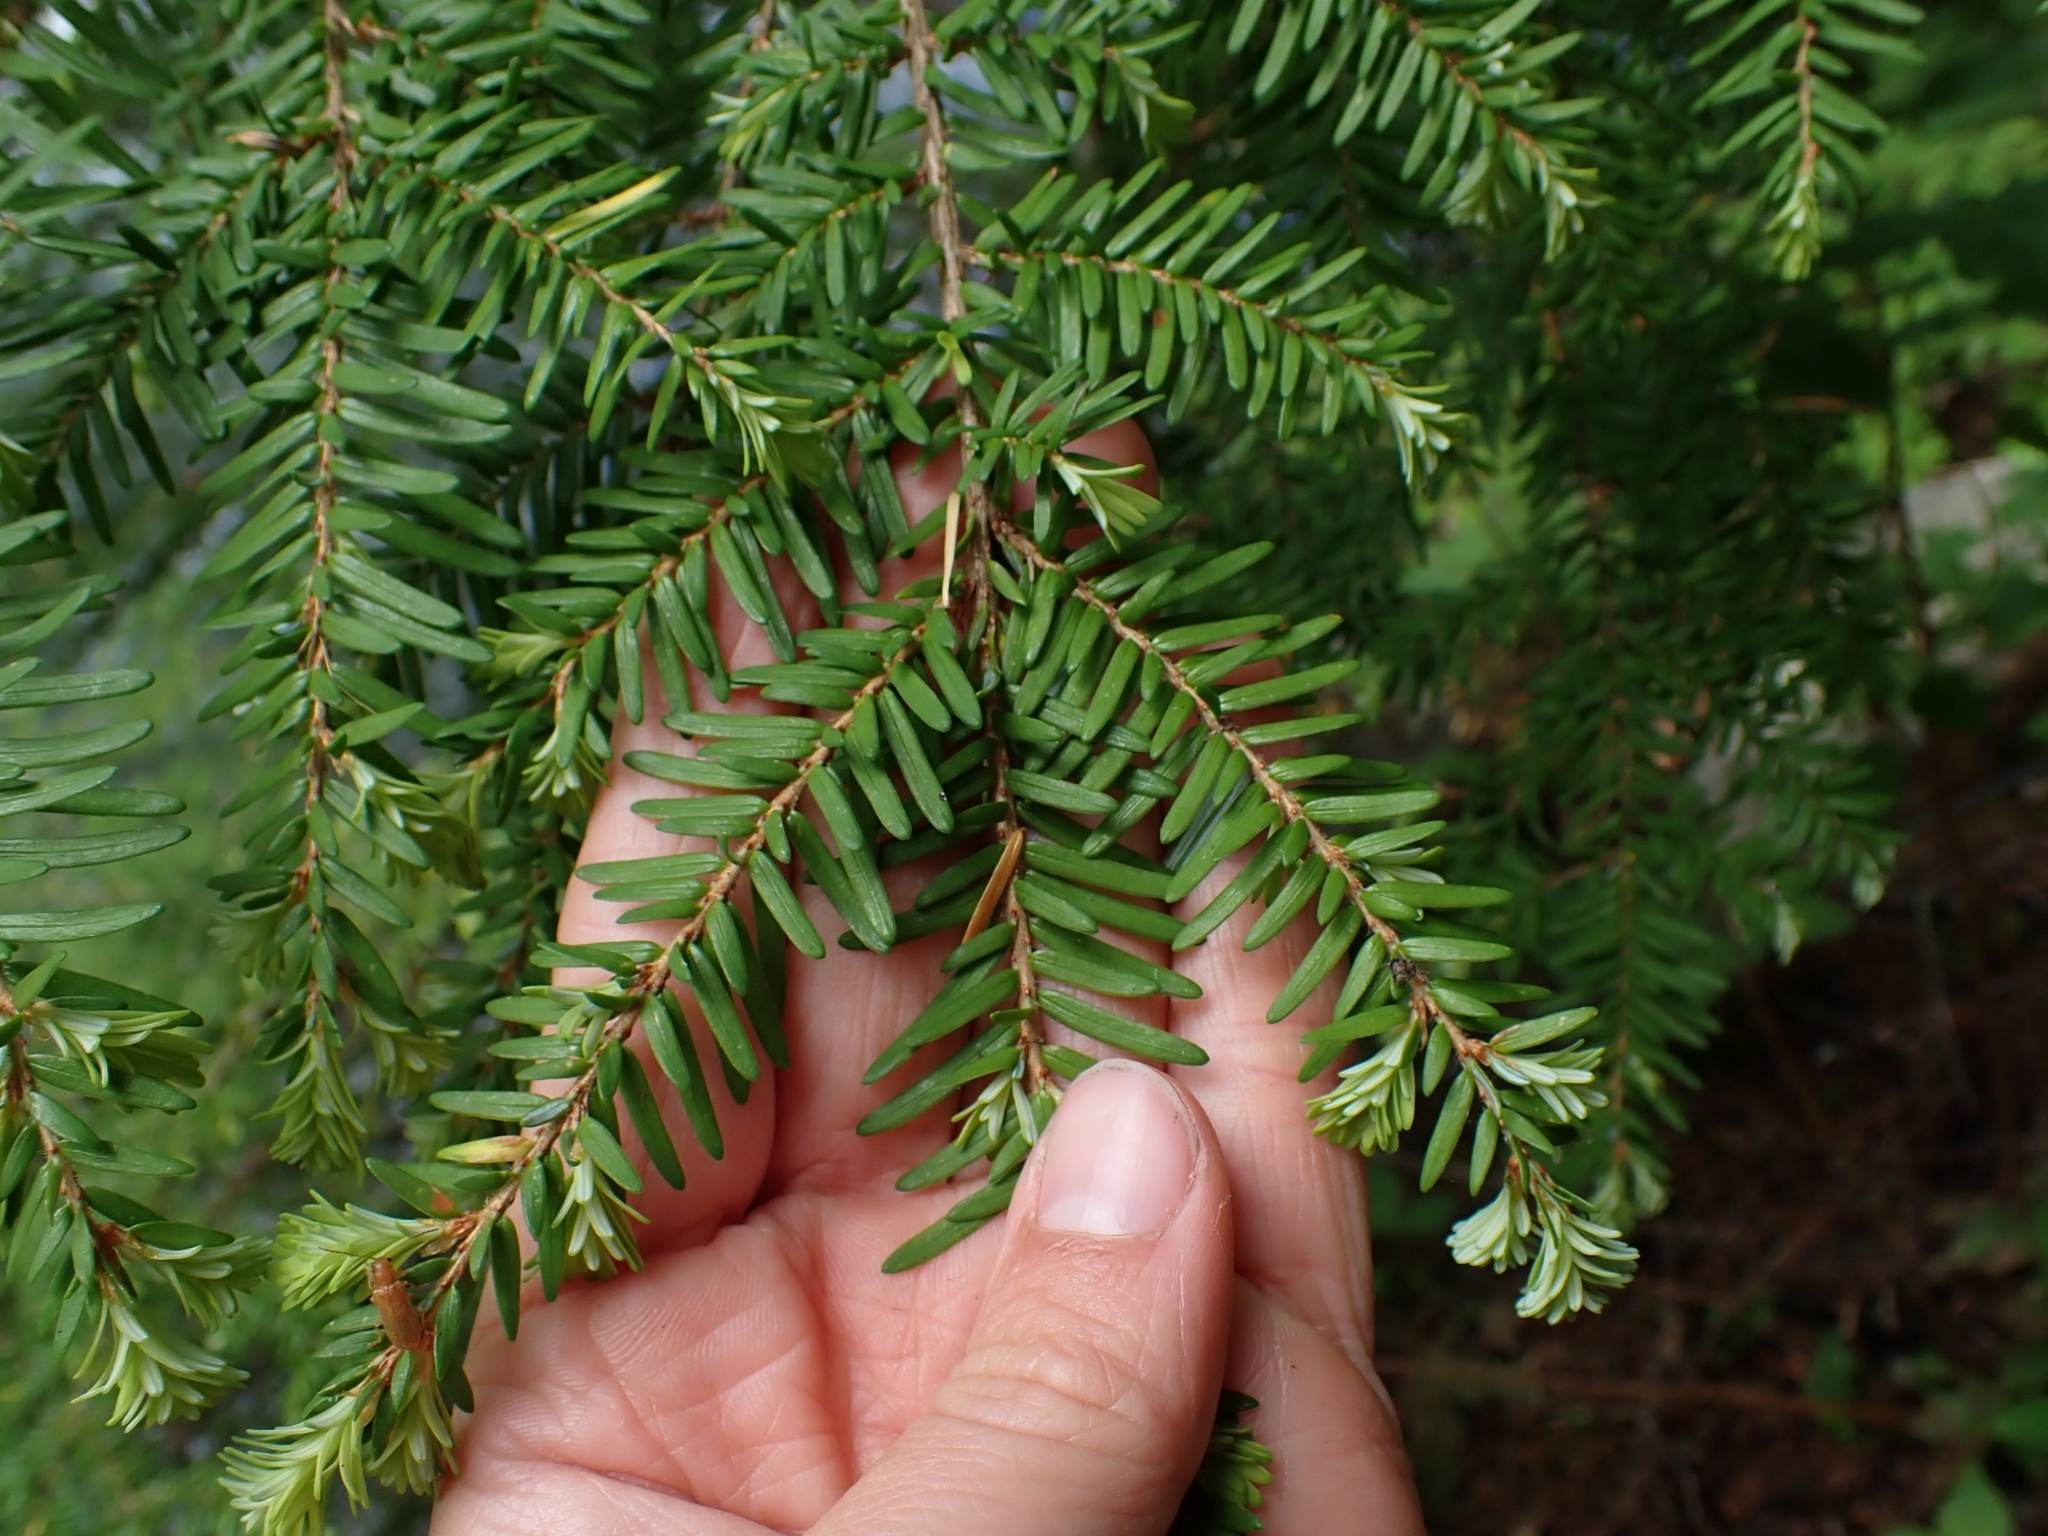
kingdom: Plantae
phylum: Tracheophyta
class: Pinopsida
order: Pinales
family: Pinaceae
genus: Tsuga
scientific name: Tsuga heterophylla
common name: Western hemlock
